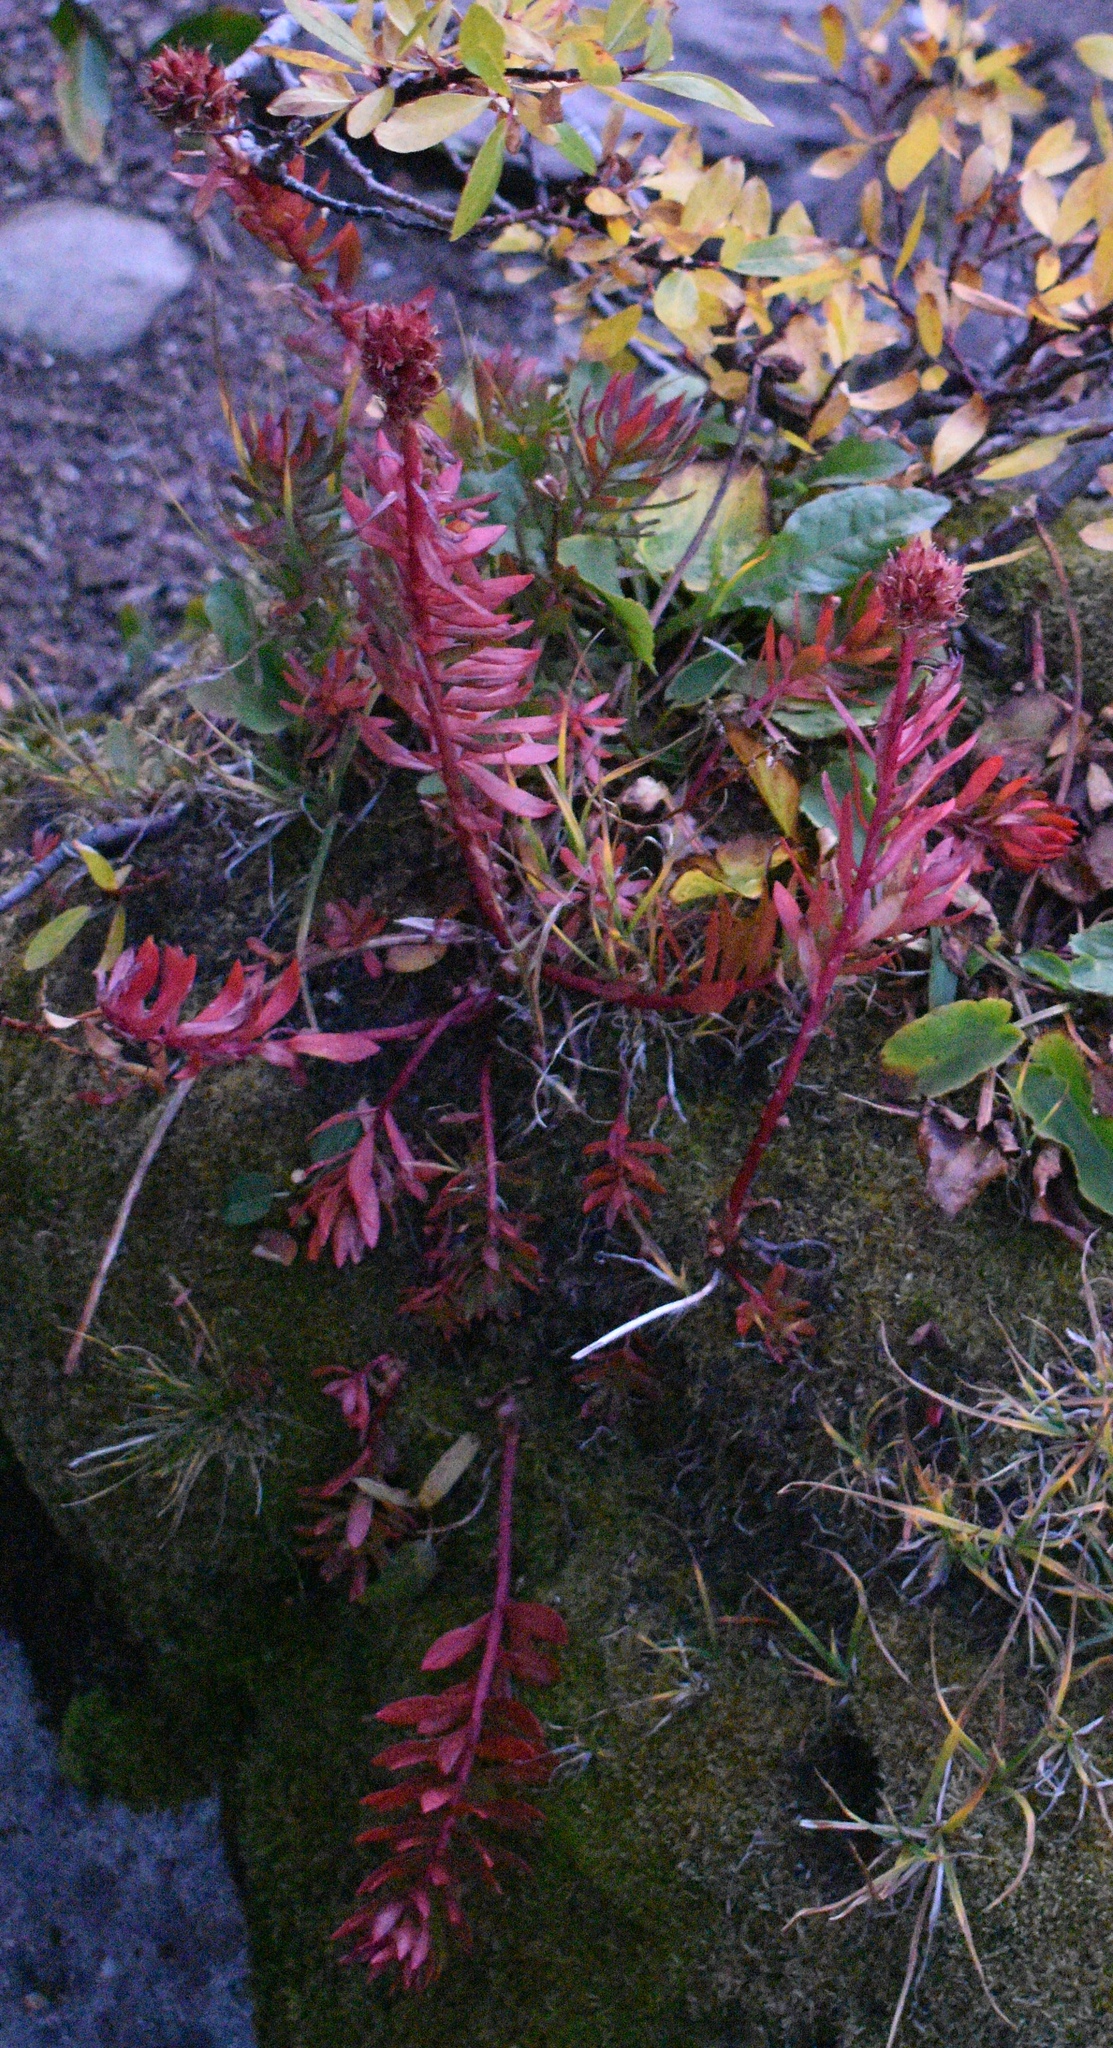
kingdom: Plantae
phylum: Tracheophyta
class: Magnoliopsida
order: Saxifragales
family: Crassulaceae
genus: Rhodiola
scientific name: Rhodiola rhodantha
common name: Red orpine
